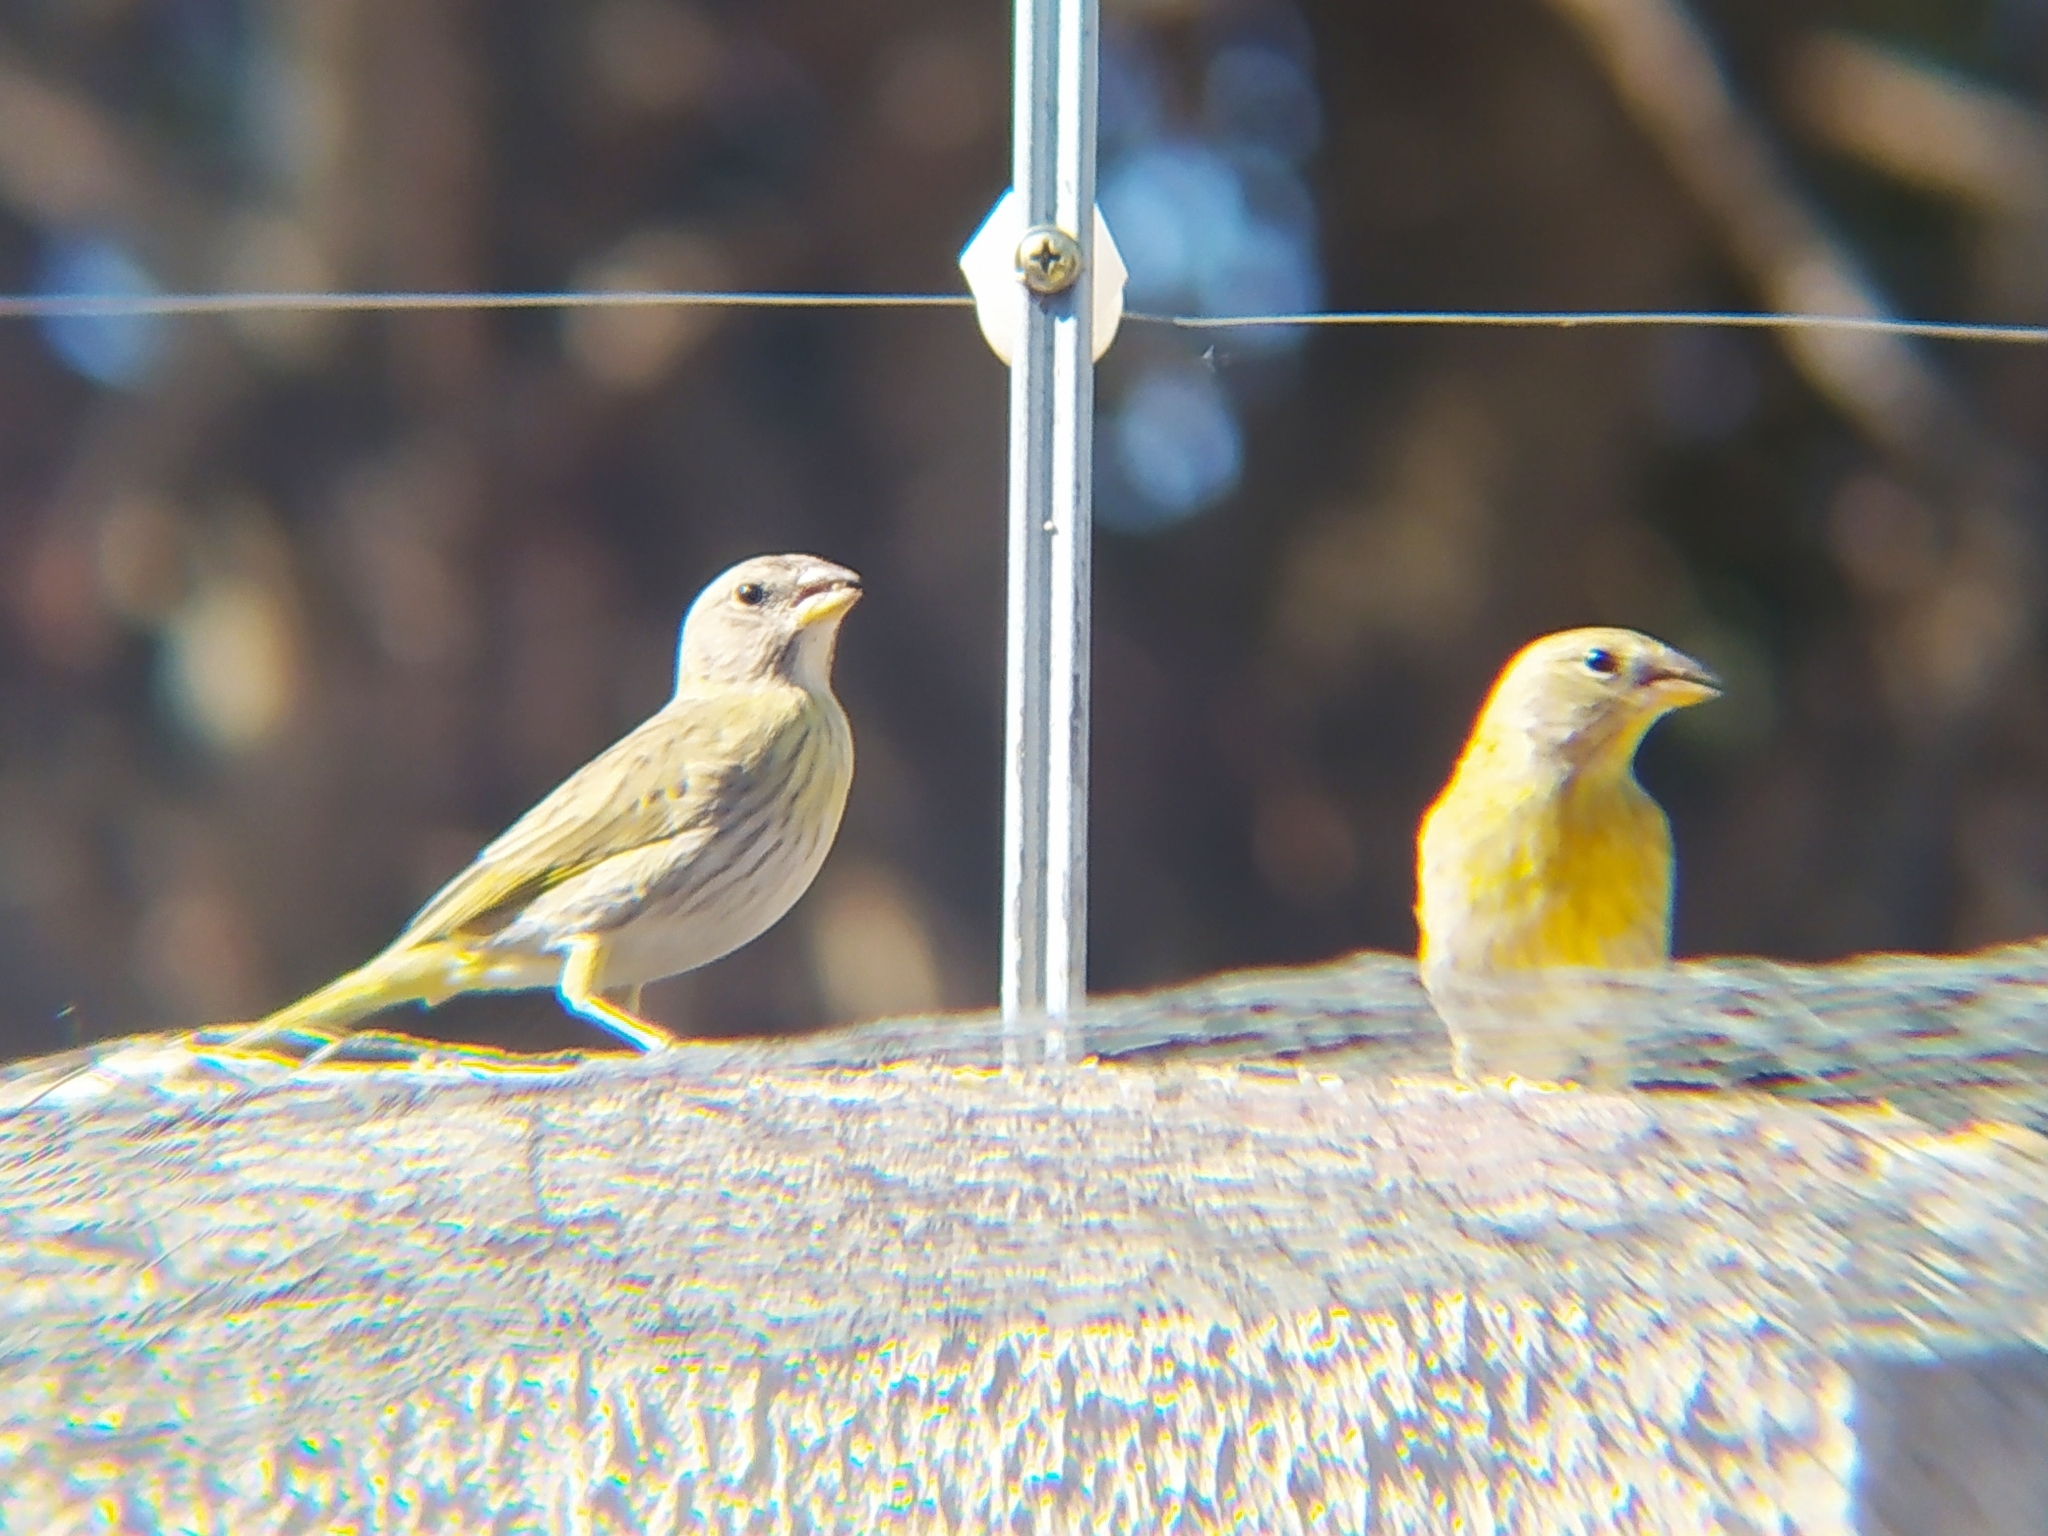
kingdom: Animalia
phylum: Chordata
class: Aves
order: Passeriformes
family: Thraupidae
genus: Sicalis
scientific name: Sicalis flaveola
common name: Saffron finch
